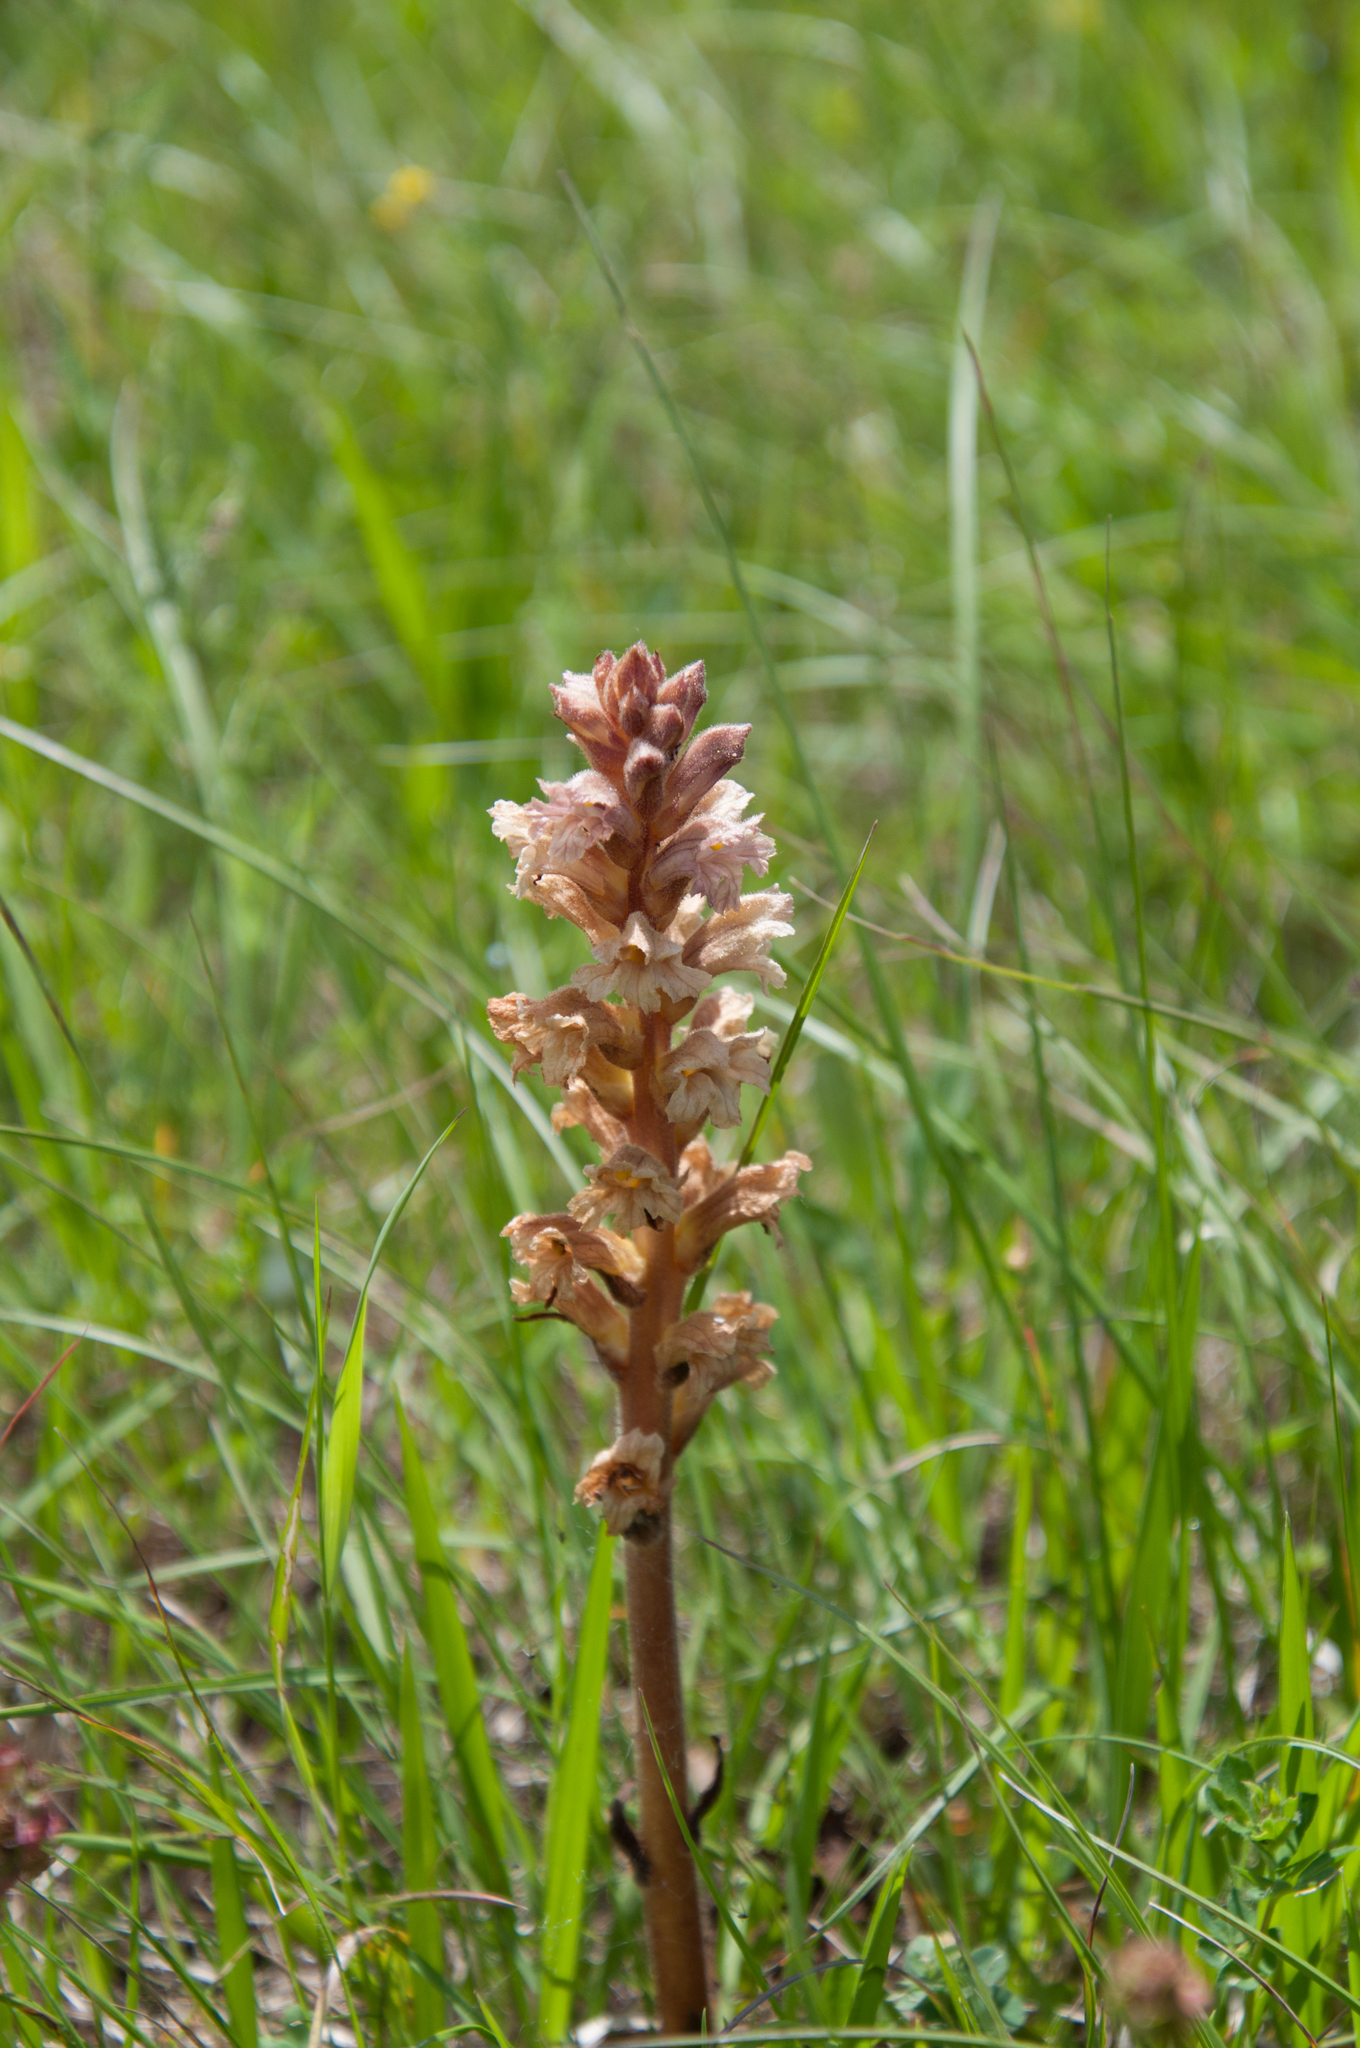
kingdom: Plantae
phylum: Tracheophyta
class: Magnoliopsida
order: Lamiales
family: Orobanchaceae
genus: Orobanche
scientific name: Orobanche lutea
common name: Yellow broomrape
